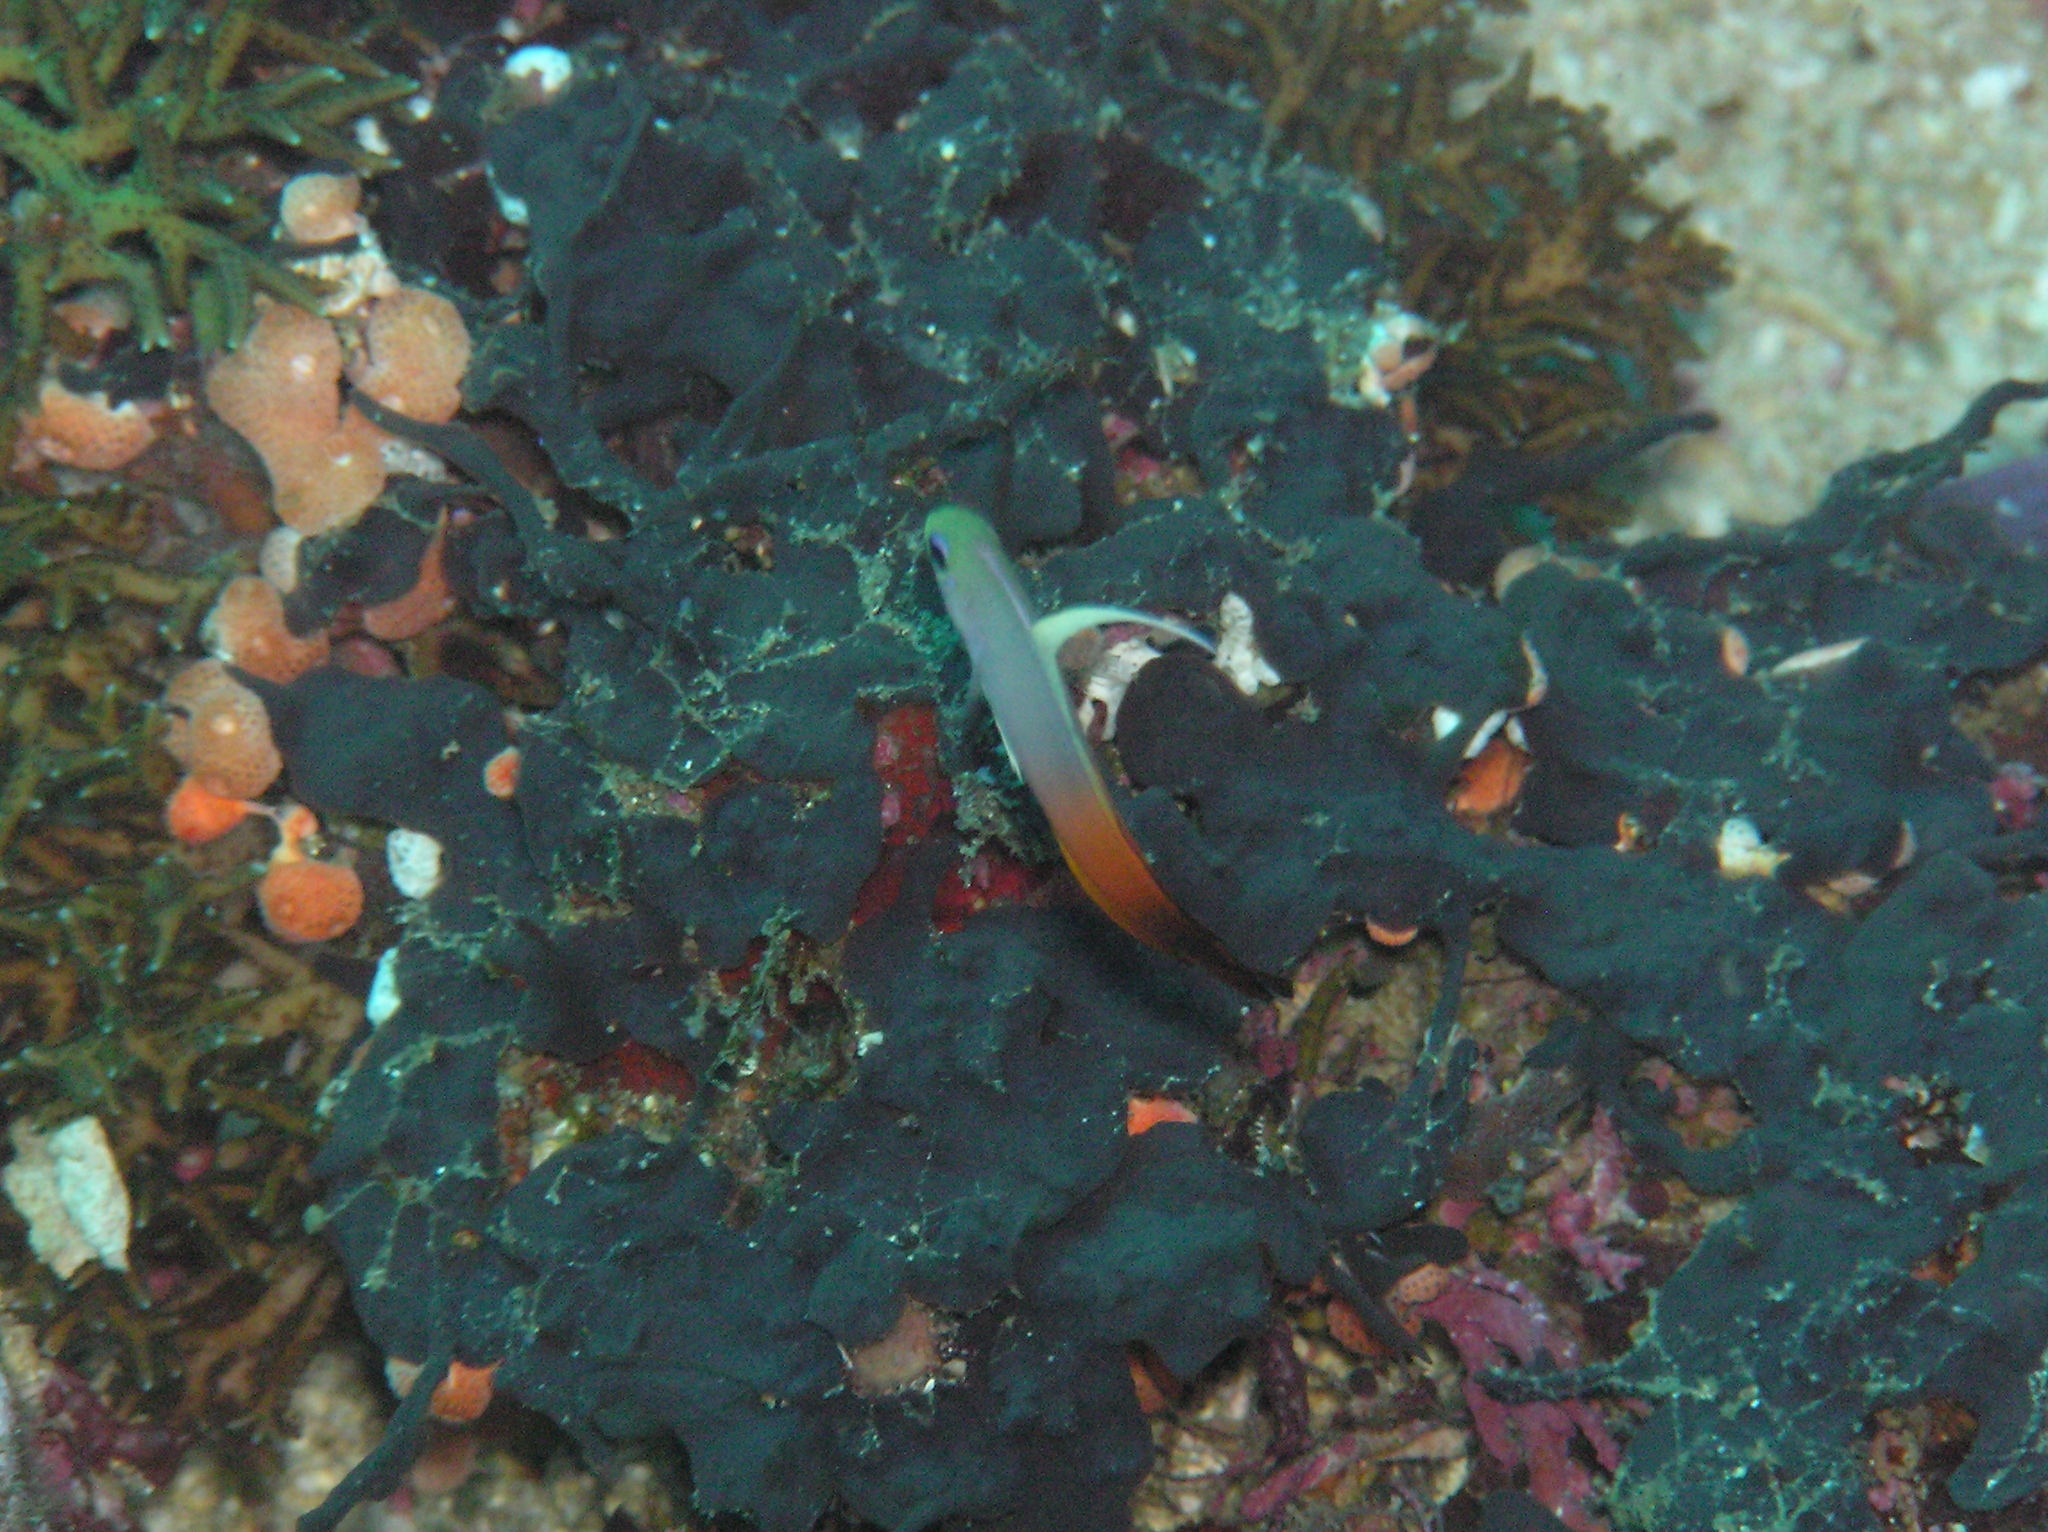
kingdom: Animalia
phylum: Chordata
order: Perciformes
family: Microdesmidae
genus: Nemateleotris
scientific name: Nemateleotris magnifica
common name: Fire goby
